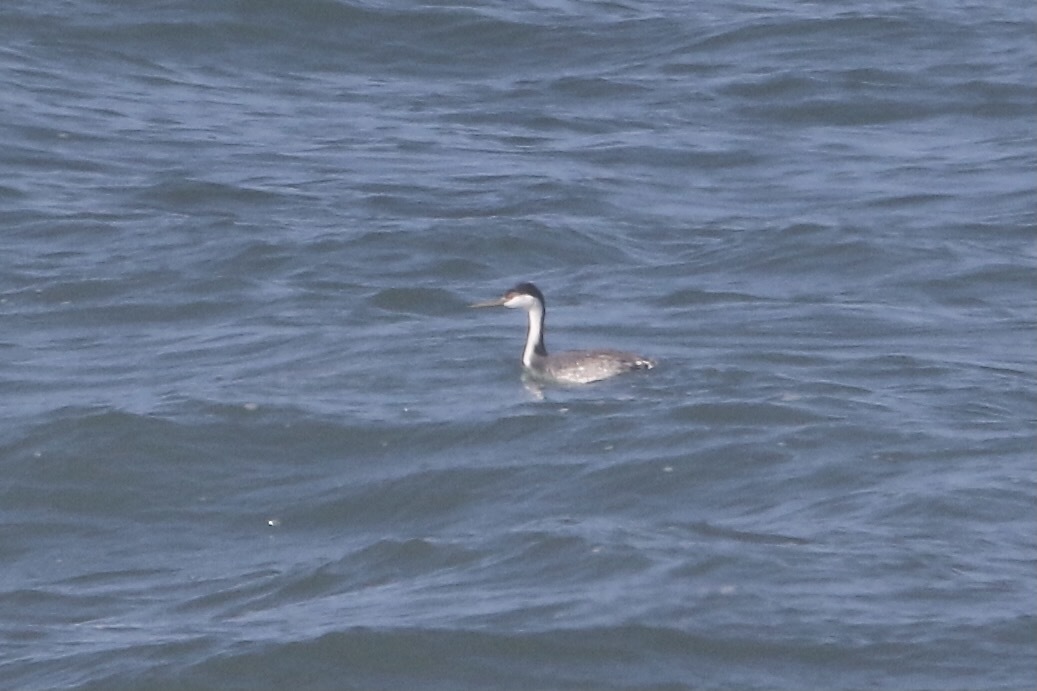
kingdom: Animalia
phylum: Chordata
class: Aves
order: Podicipediformes
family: Podicipedidae
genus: Aechmophorus
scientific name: Aechmophorus occidentalis
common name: Western grebe
